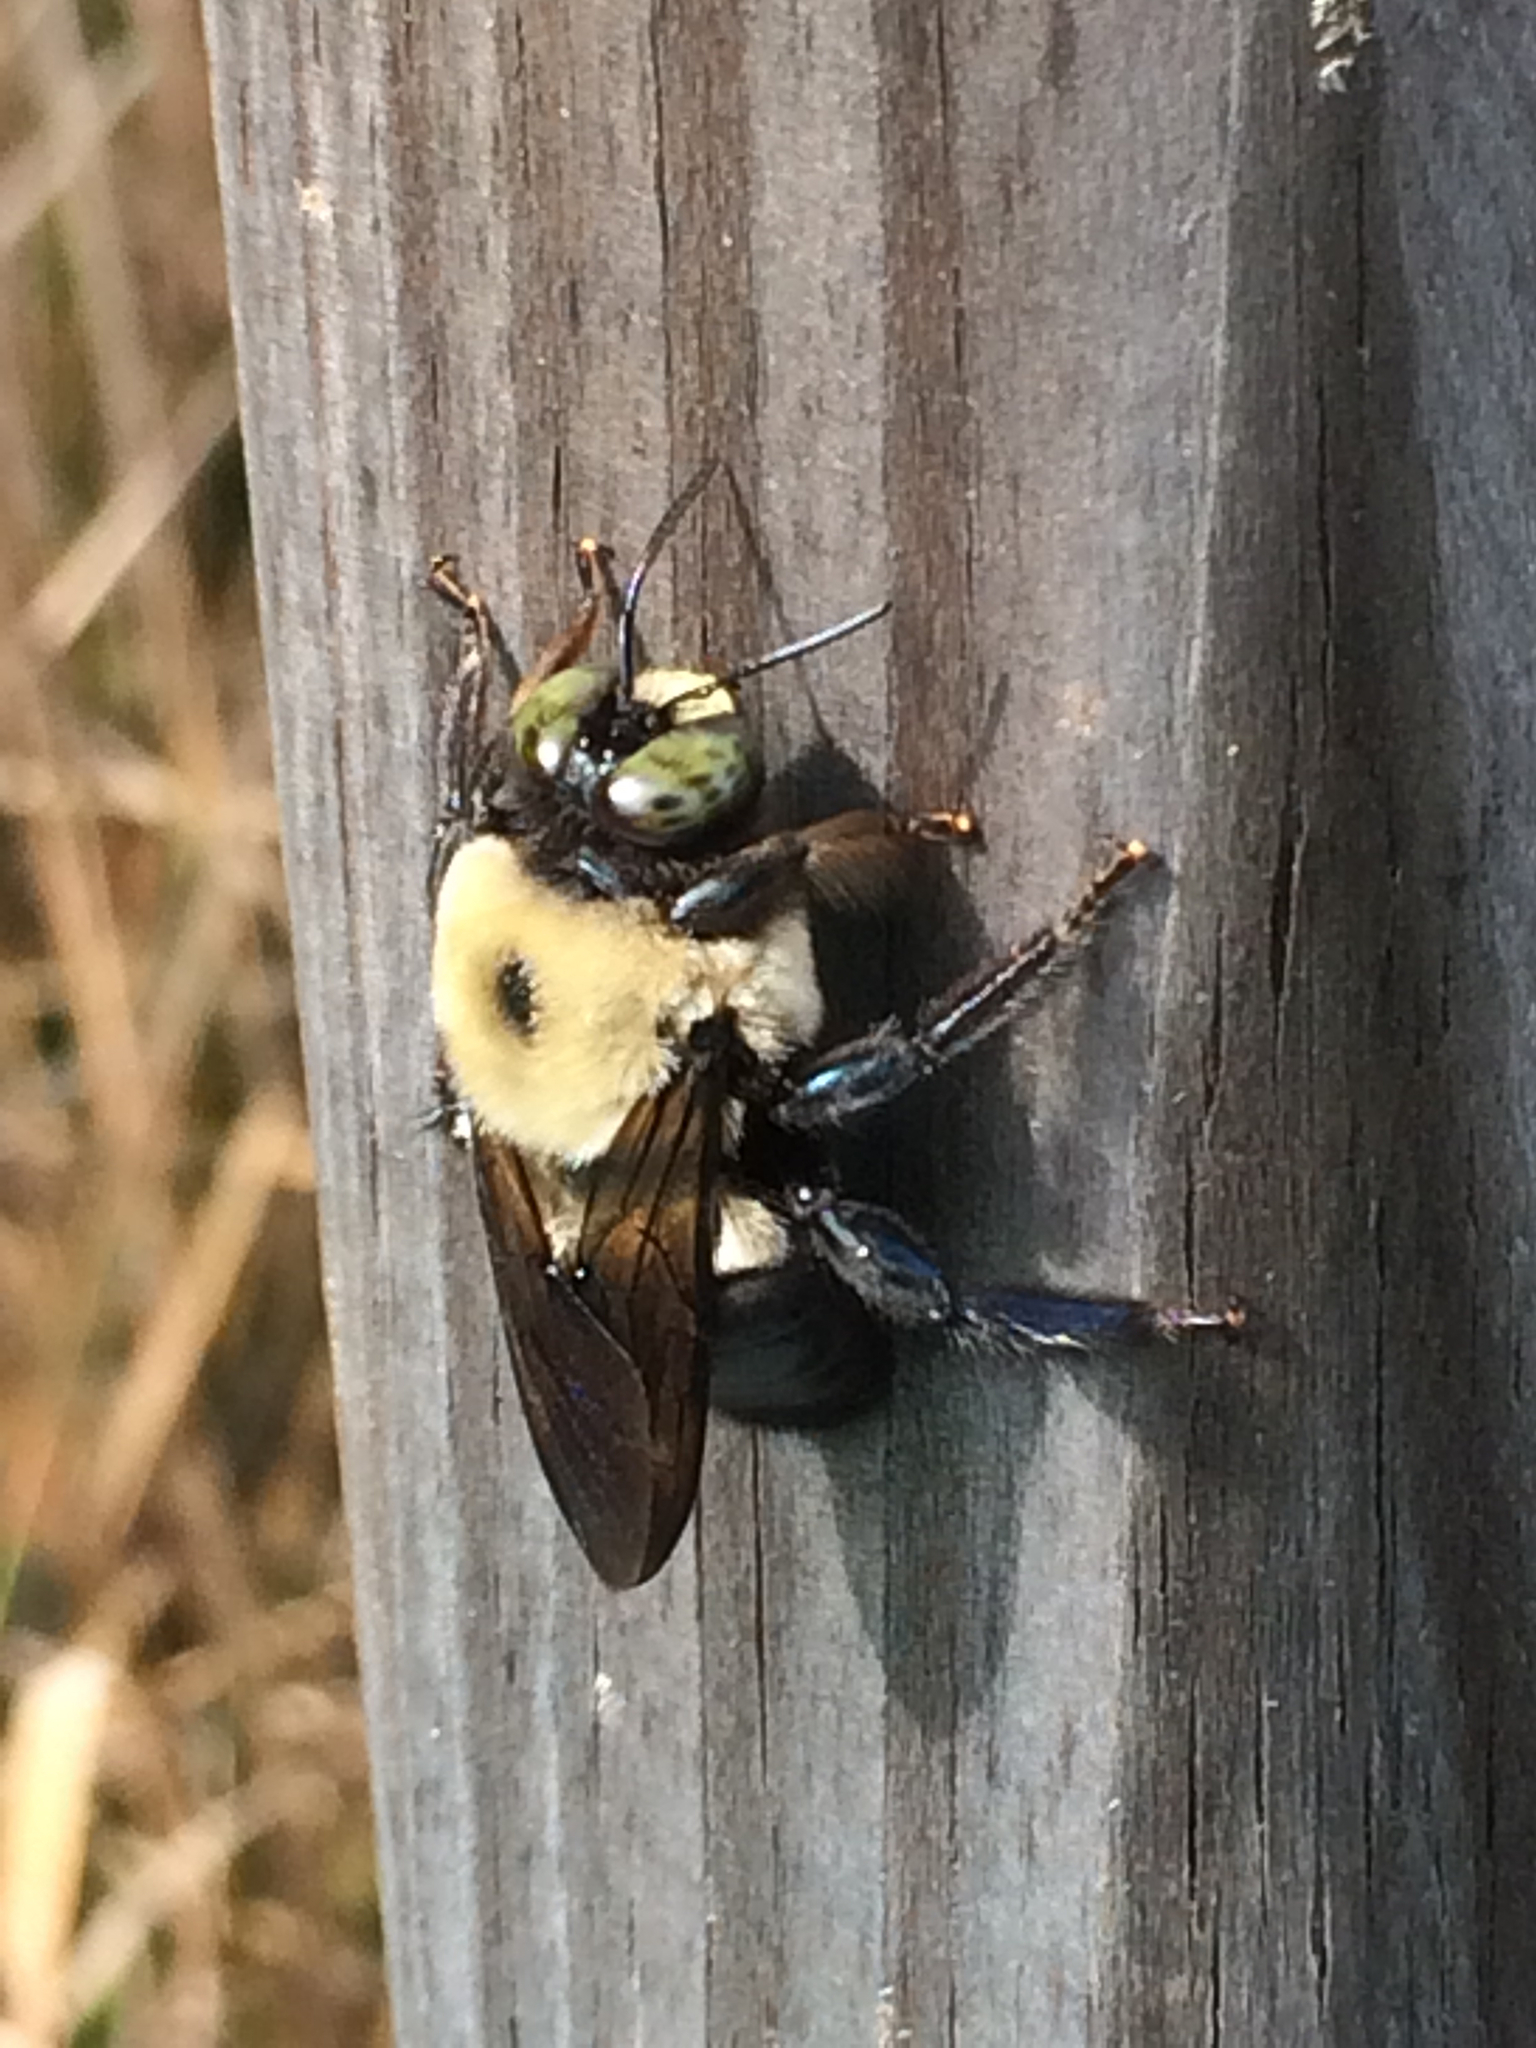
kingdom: Animalia
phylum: Arthropoda
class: Insecta
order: Hymenoptera
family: Apidae
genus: Xylocopa
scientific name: Xylocopa virginica
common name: Carpenter bee
